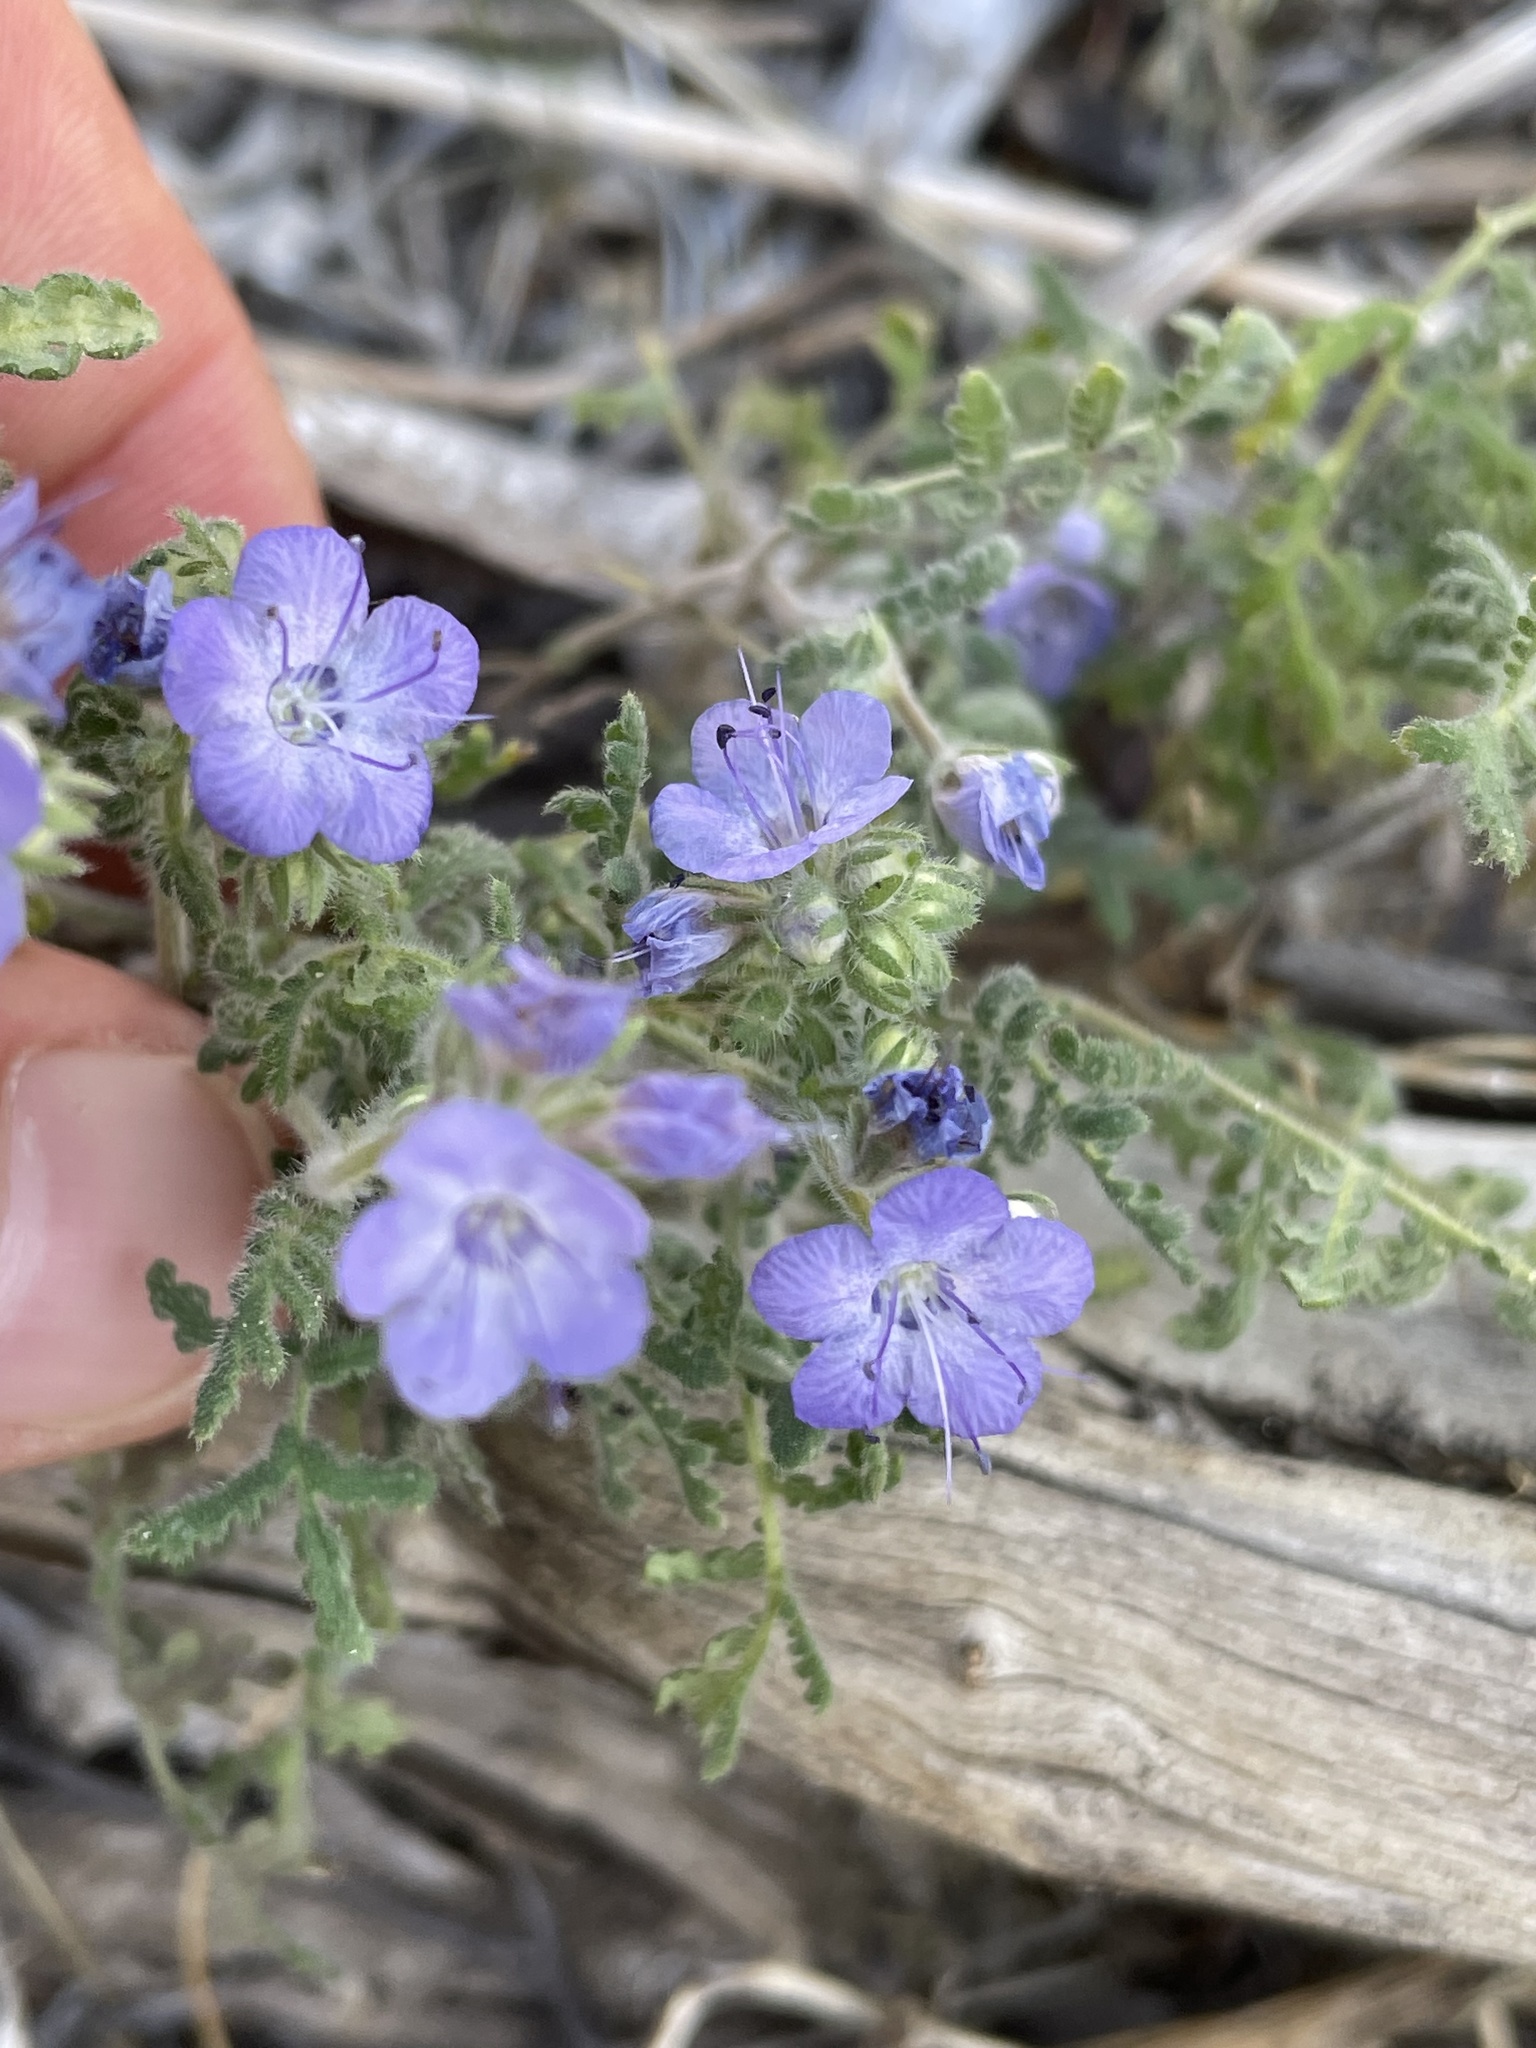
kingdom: Plantae
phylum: Tracheophyta
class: Magnoliopsida
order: Boraginales
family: Hydrophyllaceae
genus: Phacelia
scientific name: Phacelia distans
